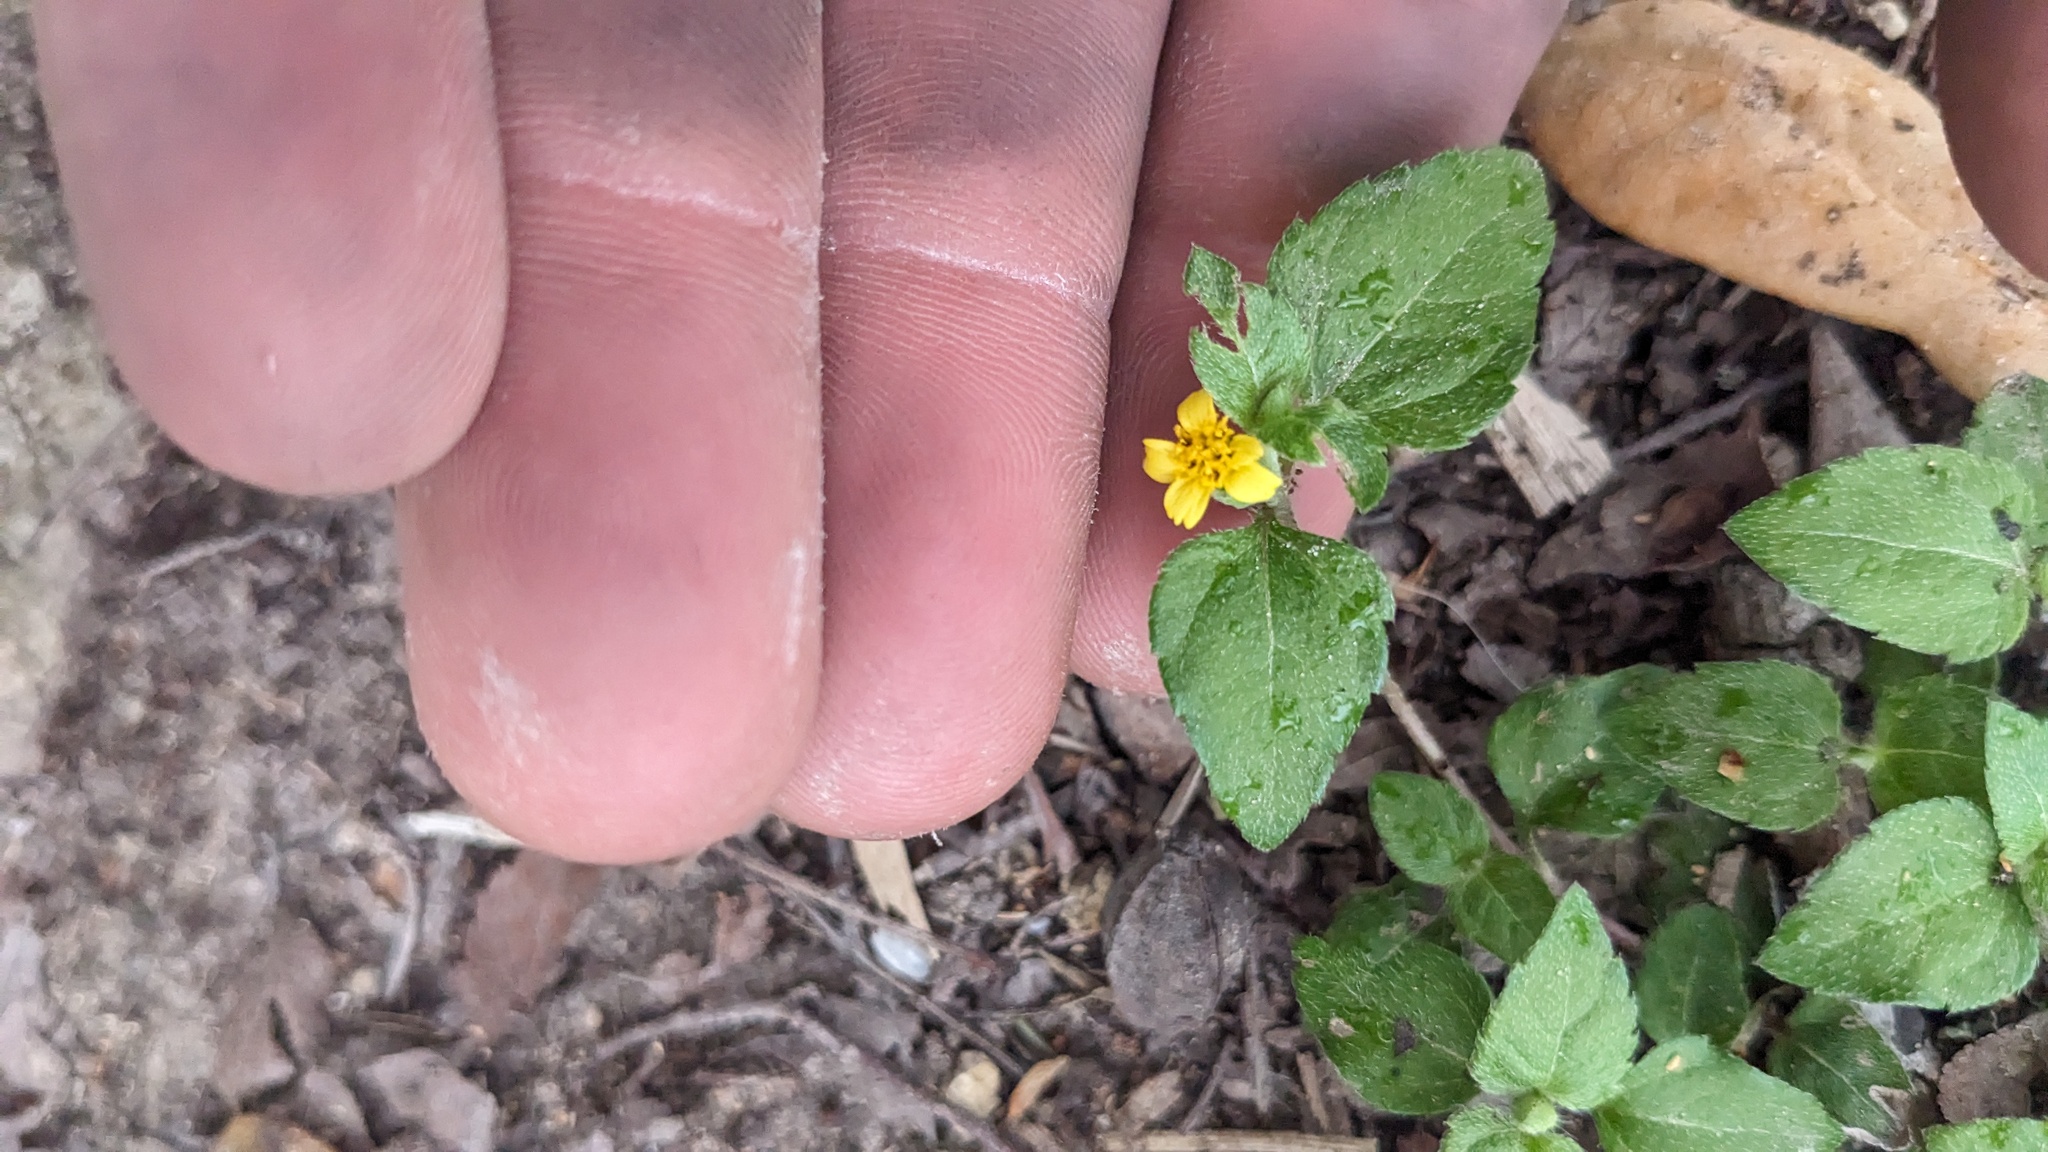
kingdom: Plantae
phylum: Tracheophyta
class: Magnoliopsida
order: Asterales
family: Asteraceae
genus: Calyptocarpus
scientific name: Calyptocarpus vialis
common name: Straggler daisy
